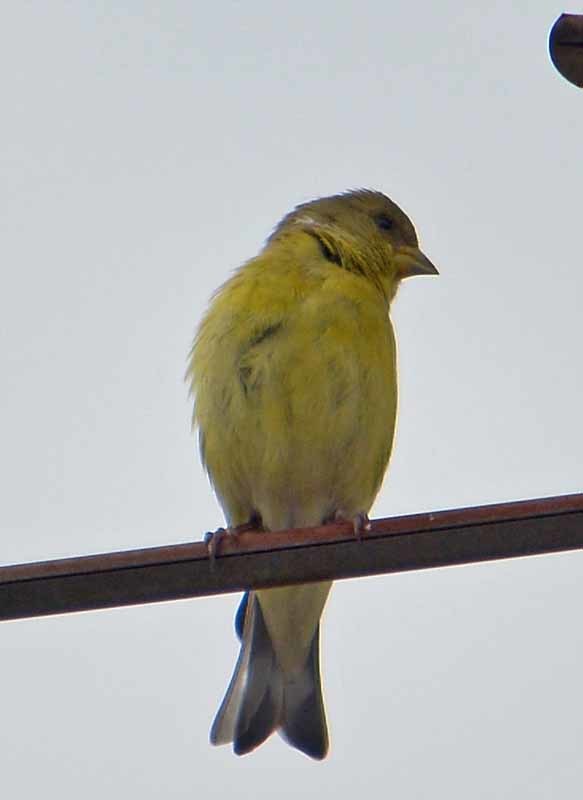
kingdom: Animalia
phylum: Chordata
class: Aves
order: Passeriformes
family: Fringillidae
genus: Spinus
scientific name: Spinus psaltria
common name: Lesser goldfinch
